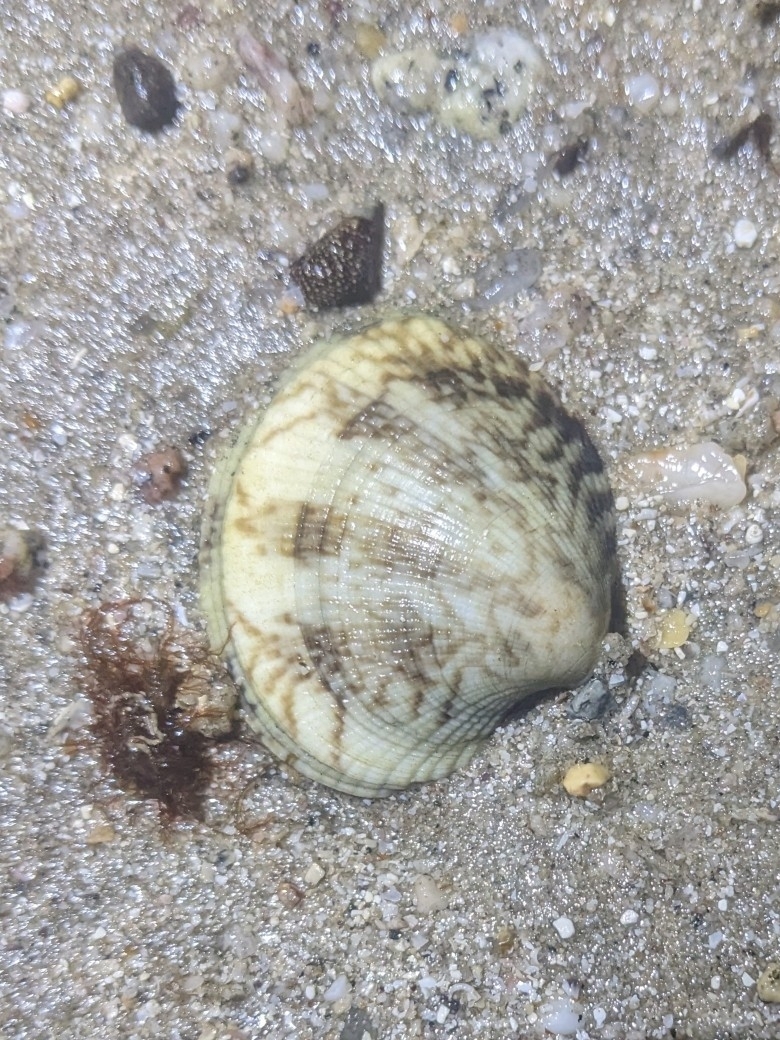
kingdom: Animalia
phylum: Mollusca
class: Bivalvia
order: Venerida
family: Veneridae
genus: Leukoma
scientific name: Leukoma grata
